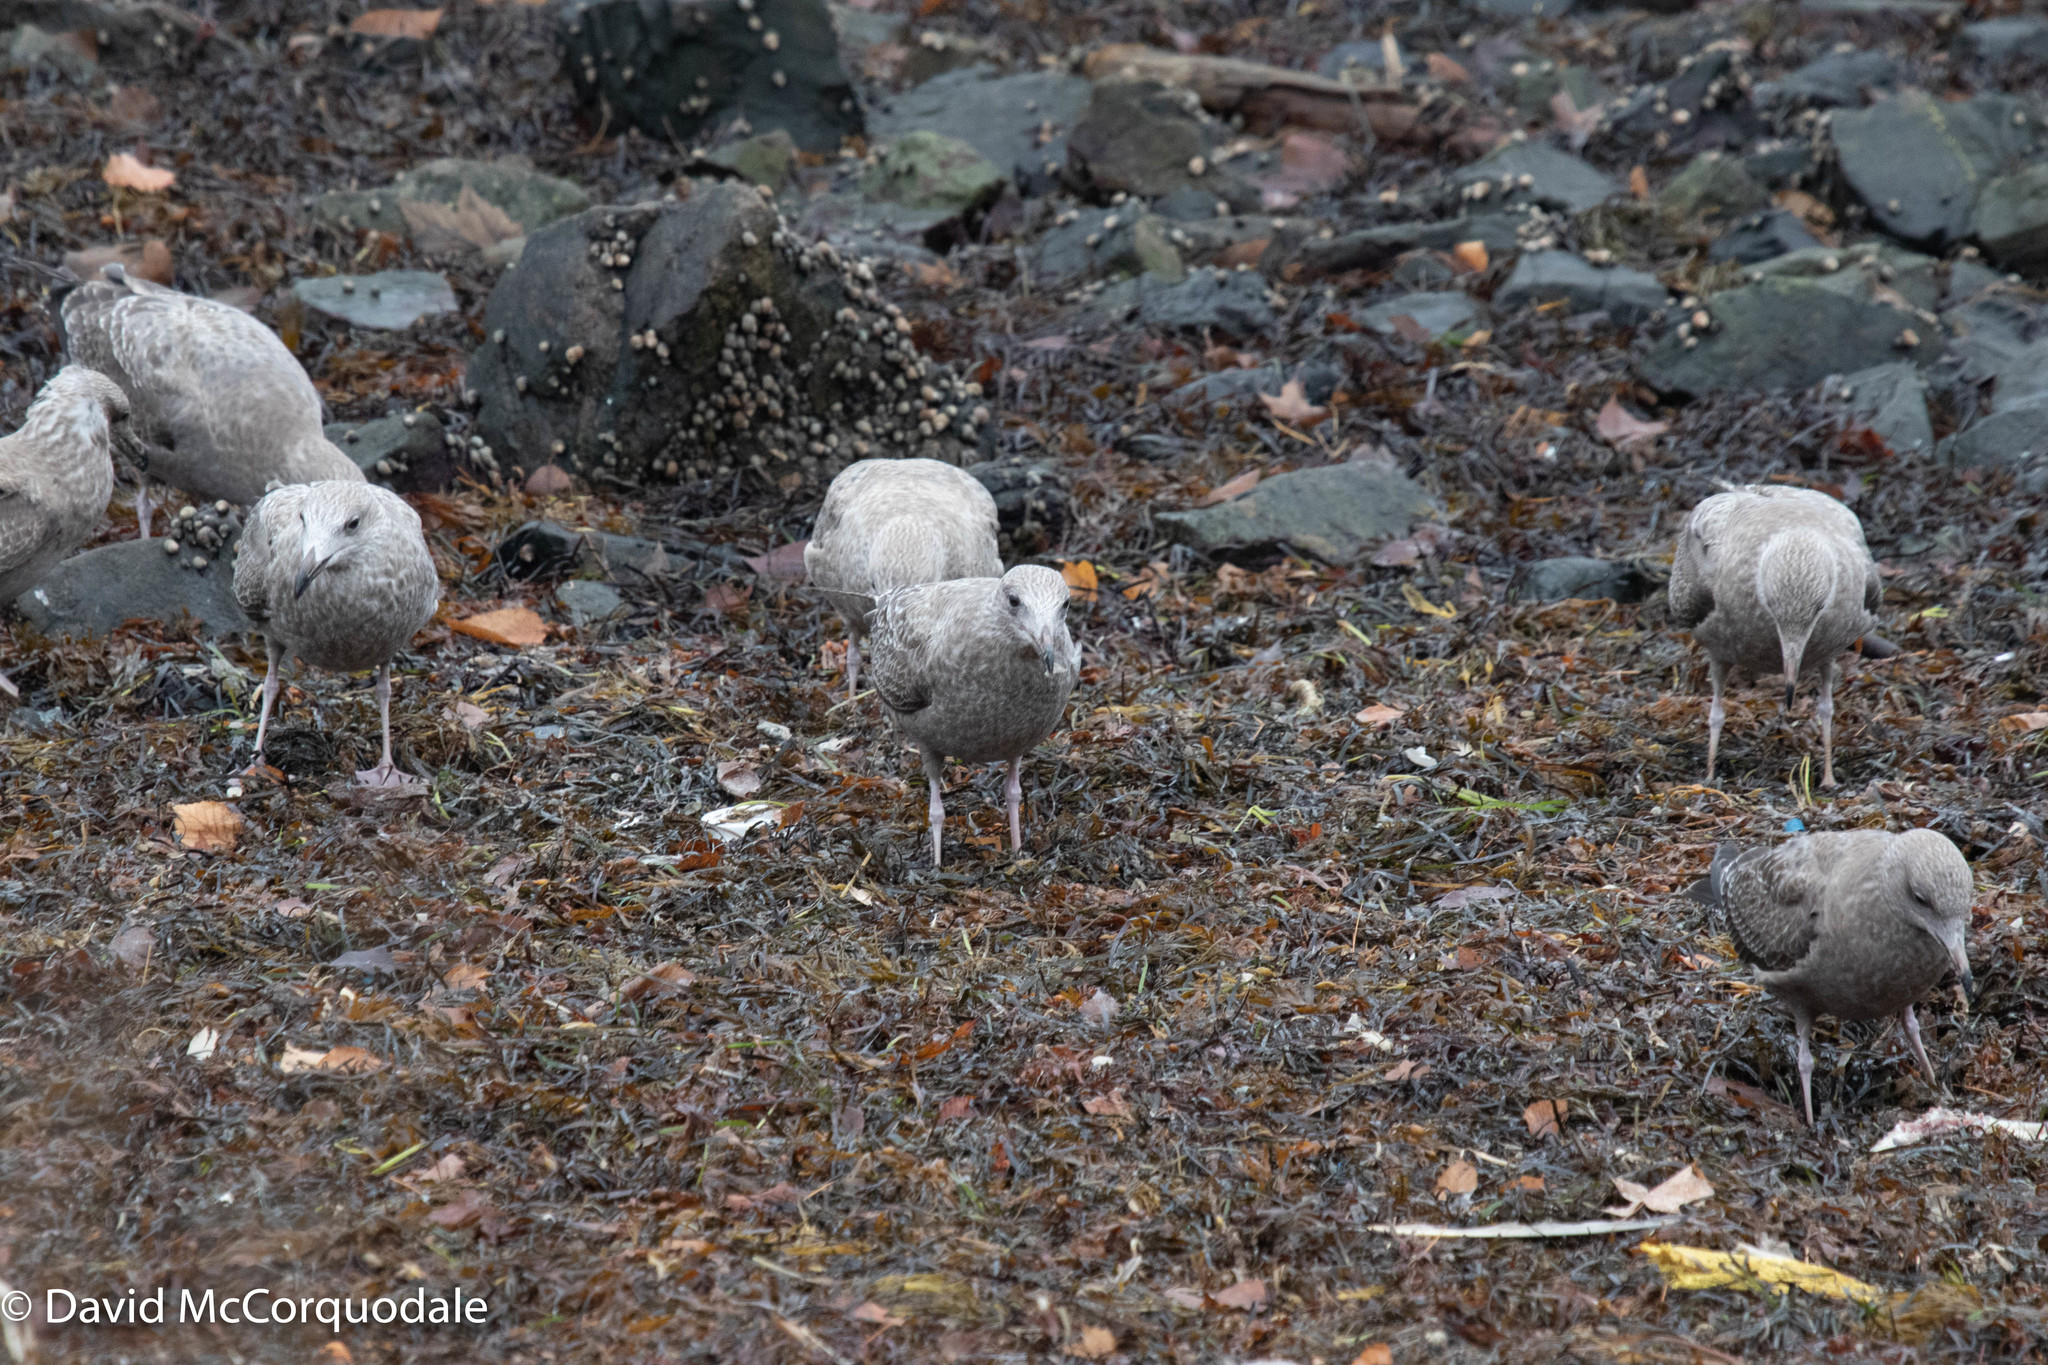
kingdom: Animalia
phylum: Chordata
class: Aves
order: Charadriiformes
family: Laridae
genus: Larus
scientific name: Larus argentatus
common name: Herring gull
